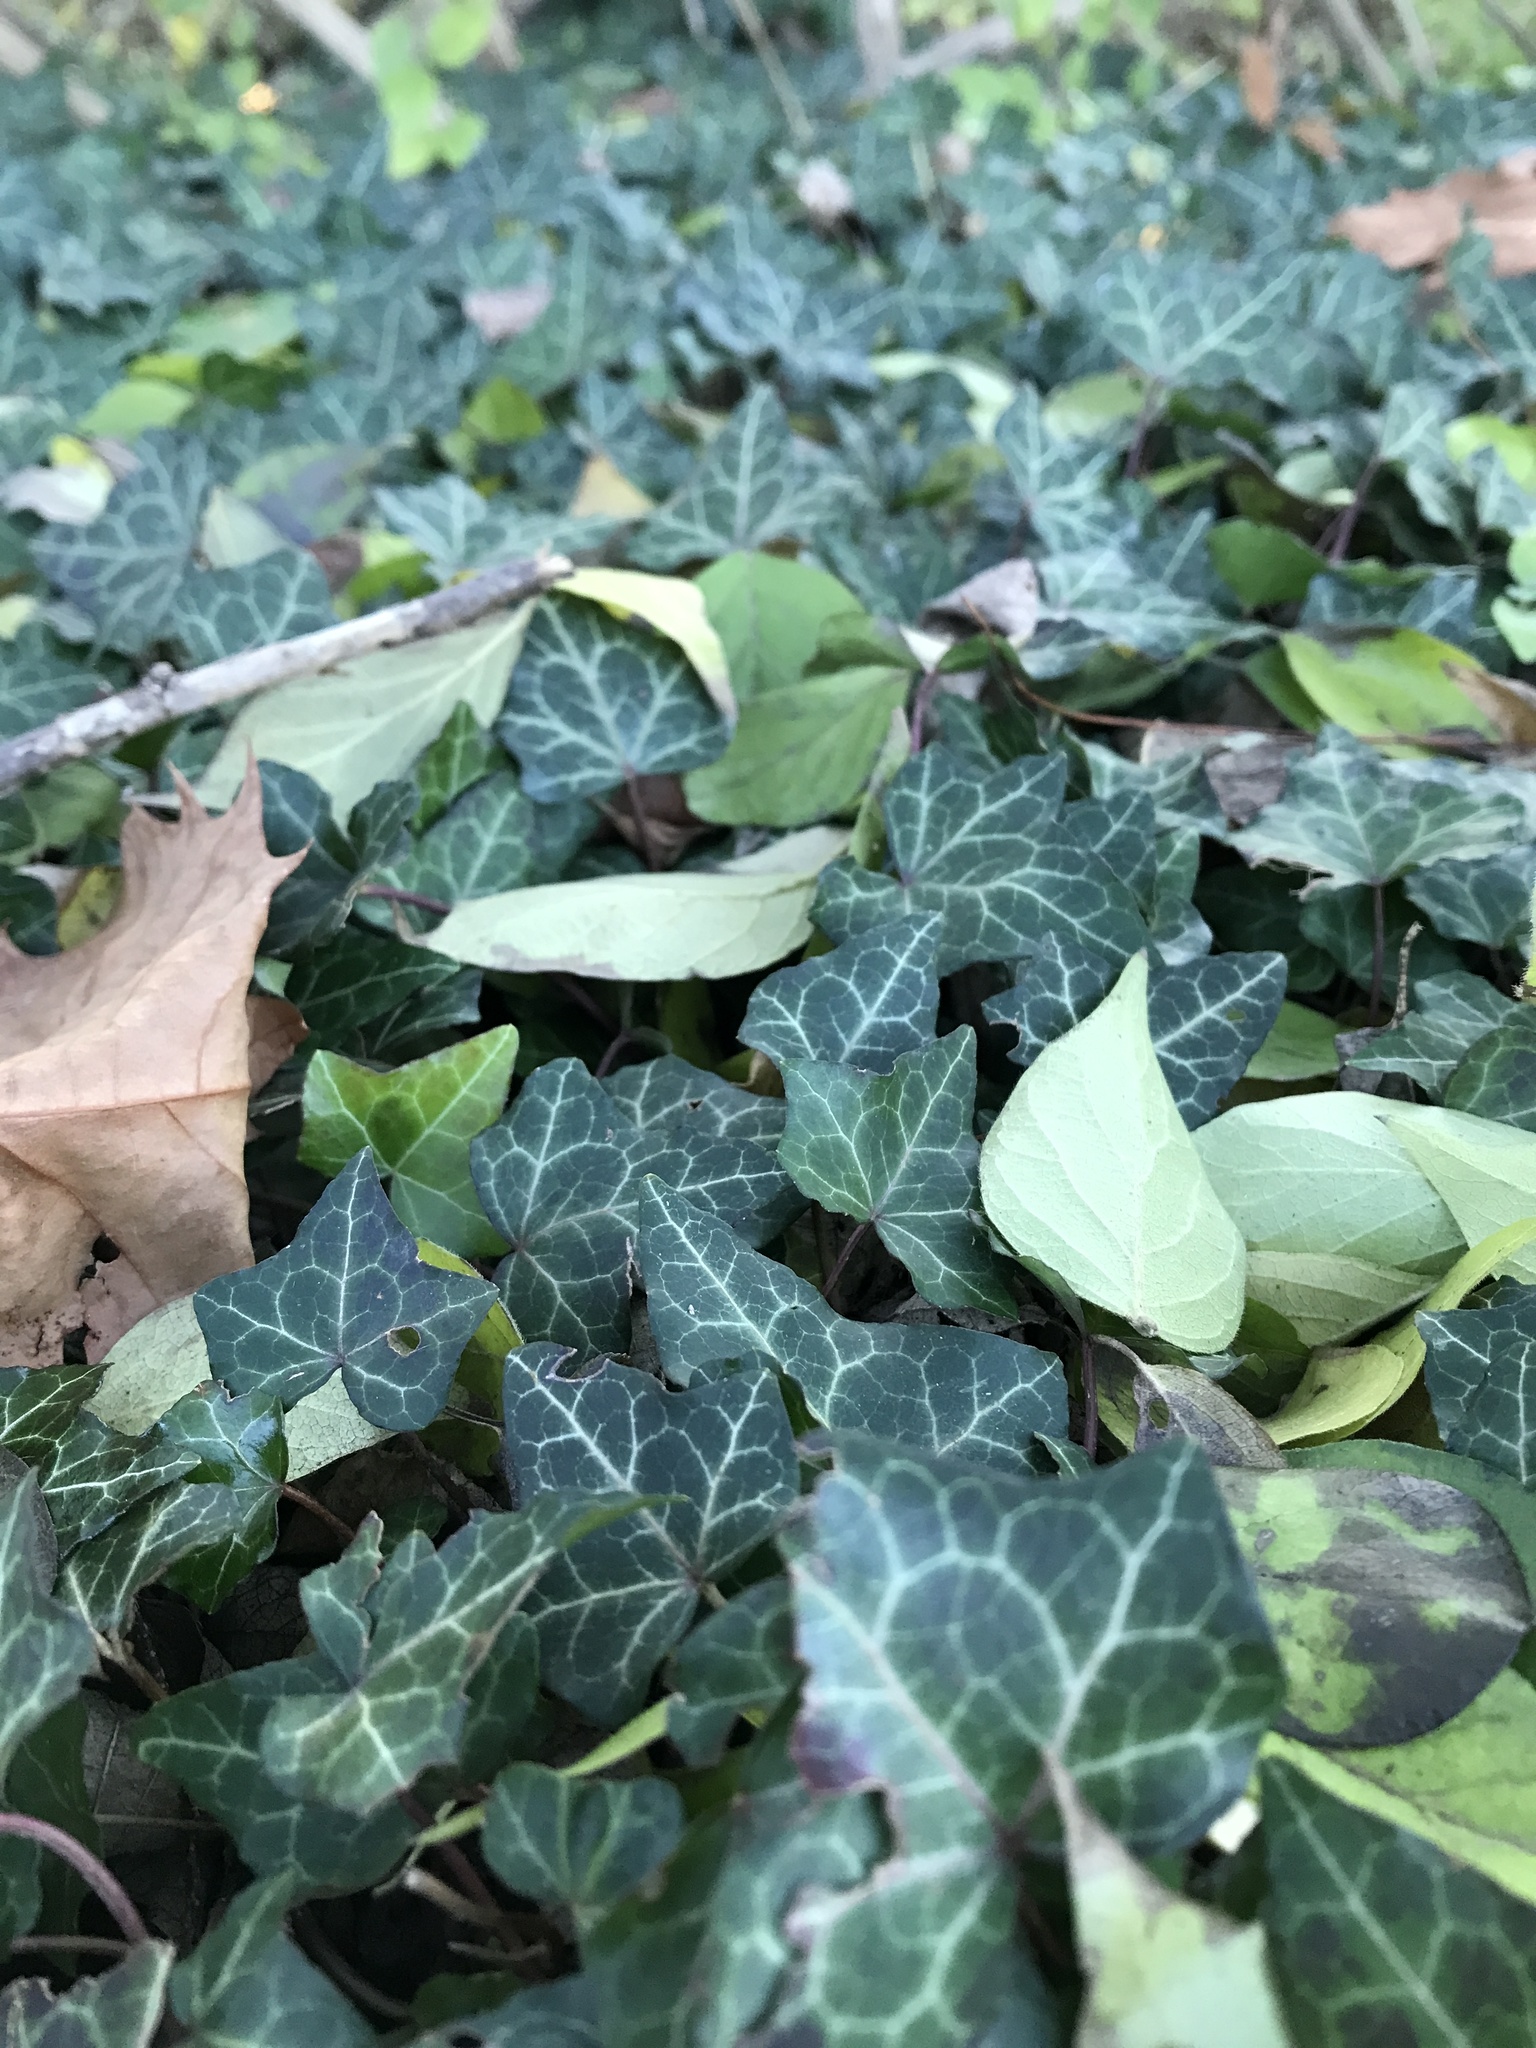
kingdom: Plantae
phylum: Tracheophyta
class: Magnoliopsida
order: Apiales
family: Araliaceae
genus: Hedera
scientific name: Hedera helix
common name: Ivy
